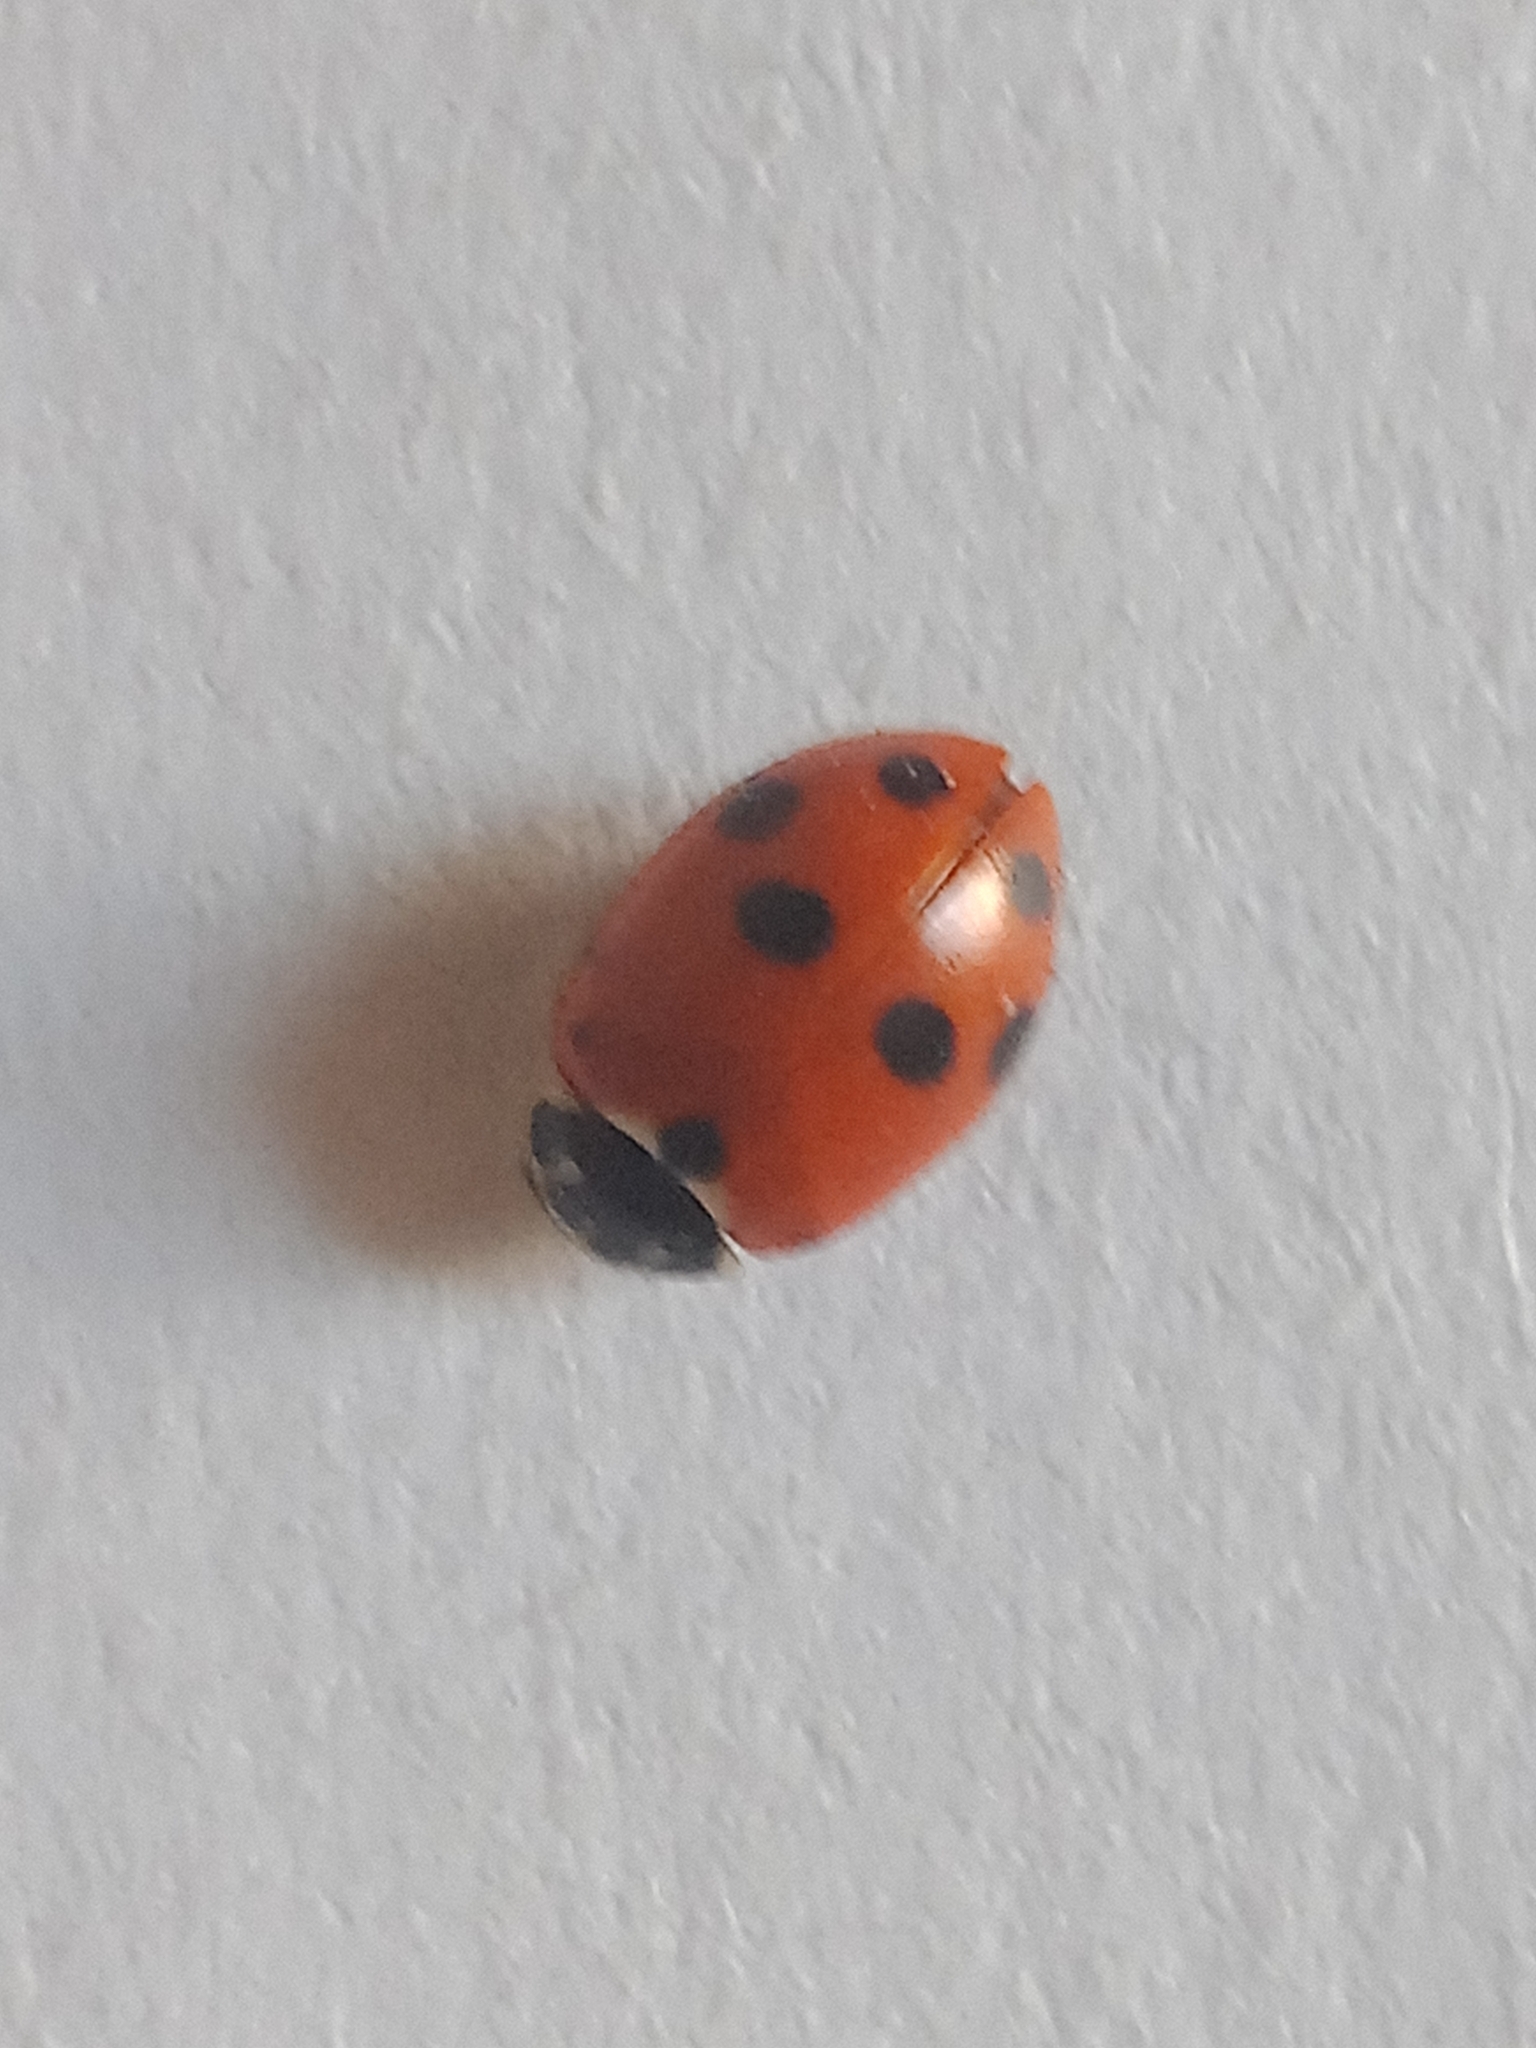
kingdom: Animalia
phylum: Arthropoda
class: Insecta
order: Coleoptera
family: Coccinellidae
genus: Hippodamia
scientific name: Hippodamia variegata
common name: Ladybird beetle
